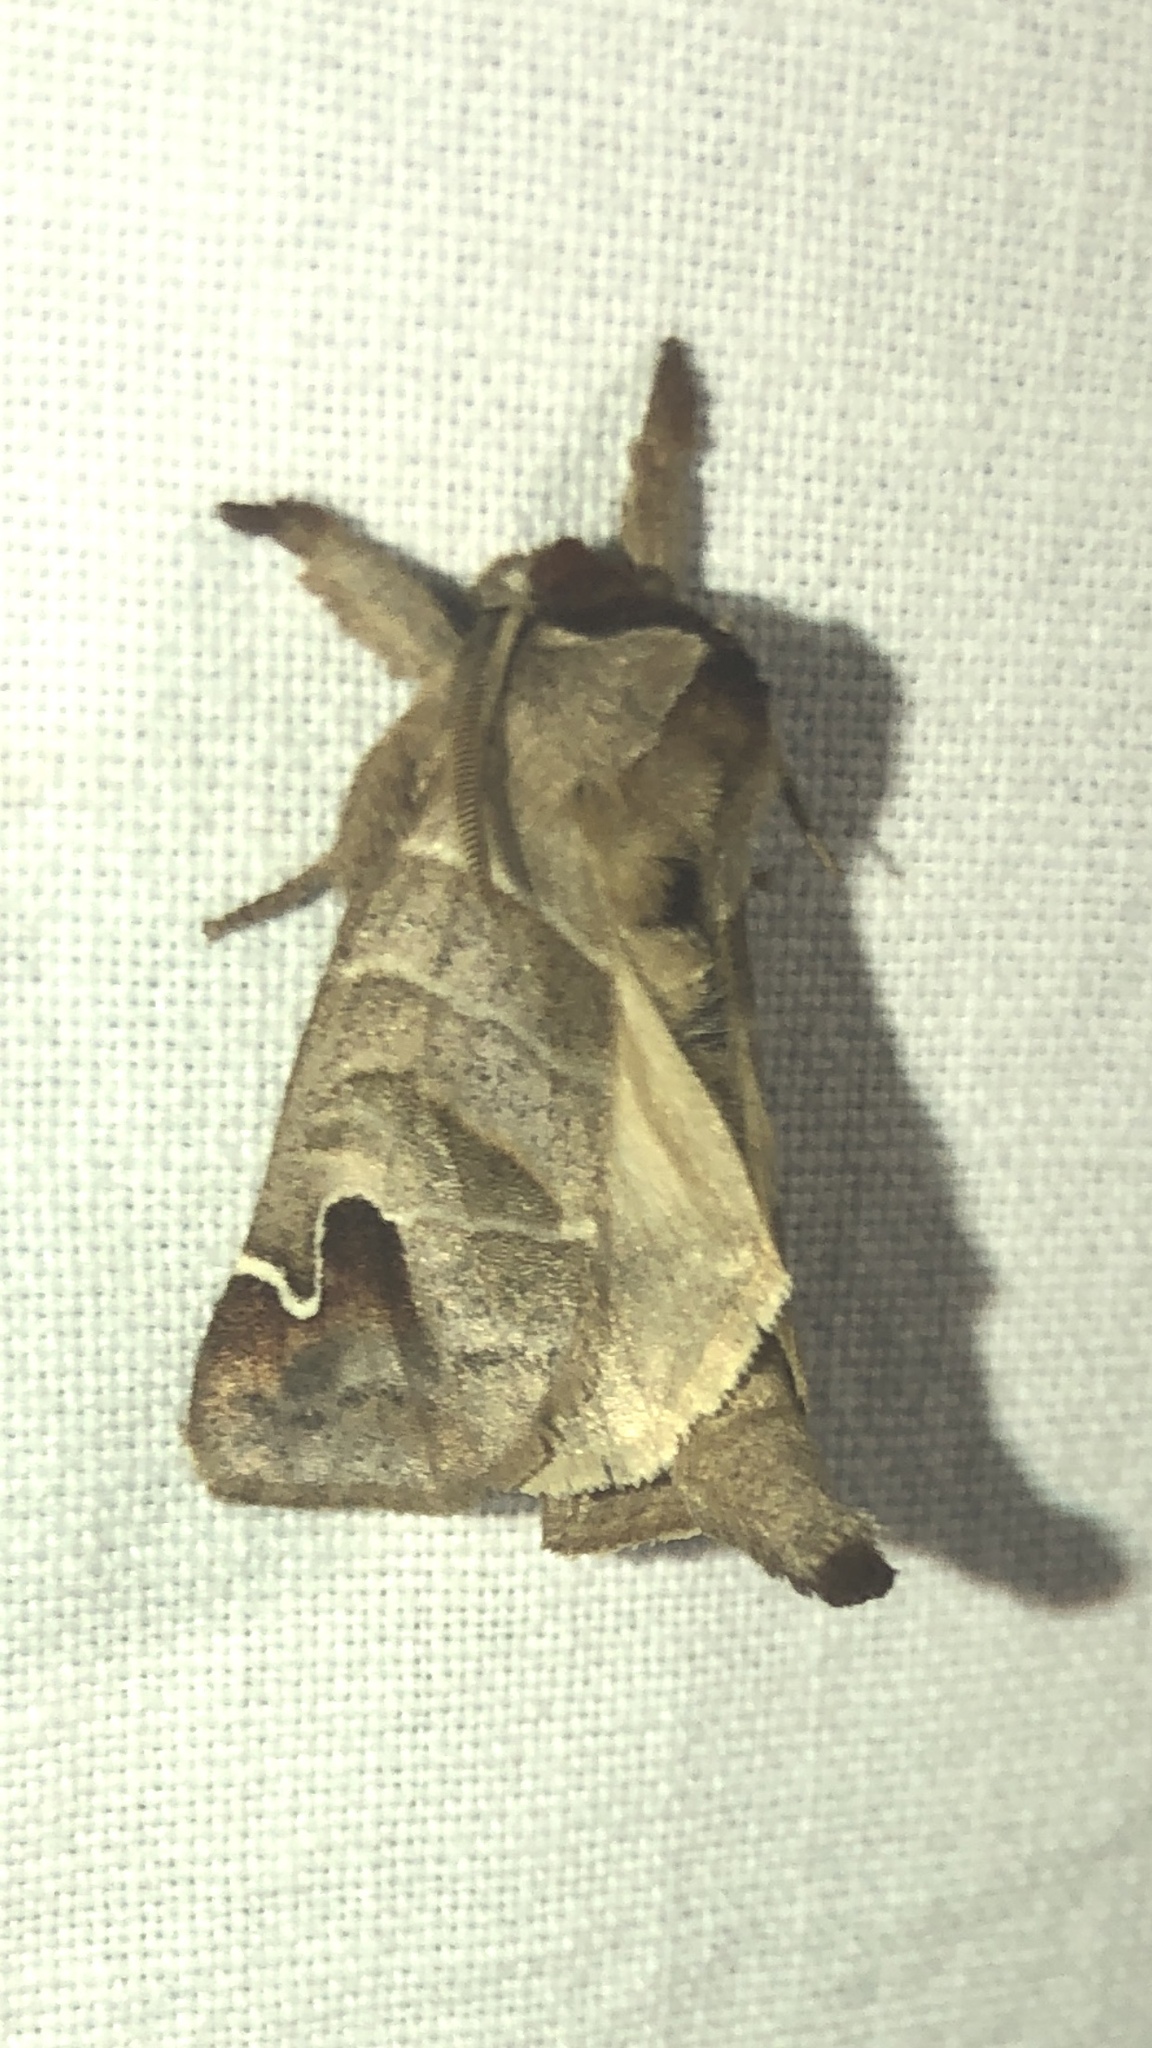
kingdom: Animalia
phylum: Arthropoda
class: Insecta
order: Lepidoptera
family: Notodontidae
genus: Clostera
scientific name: Clostera albosigma
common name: Sigmoid prominent
